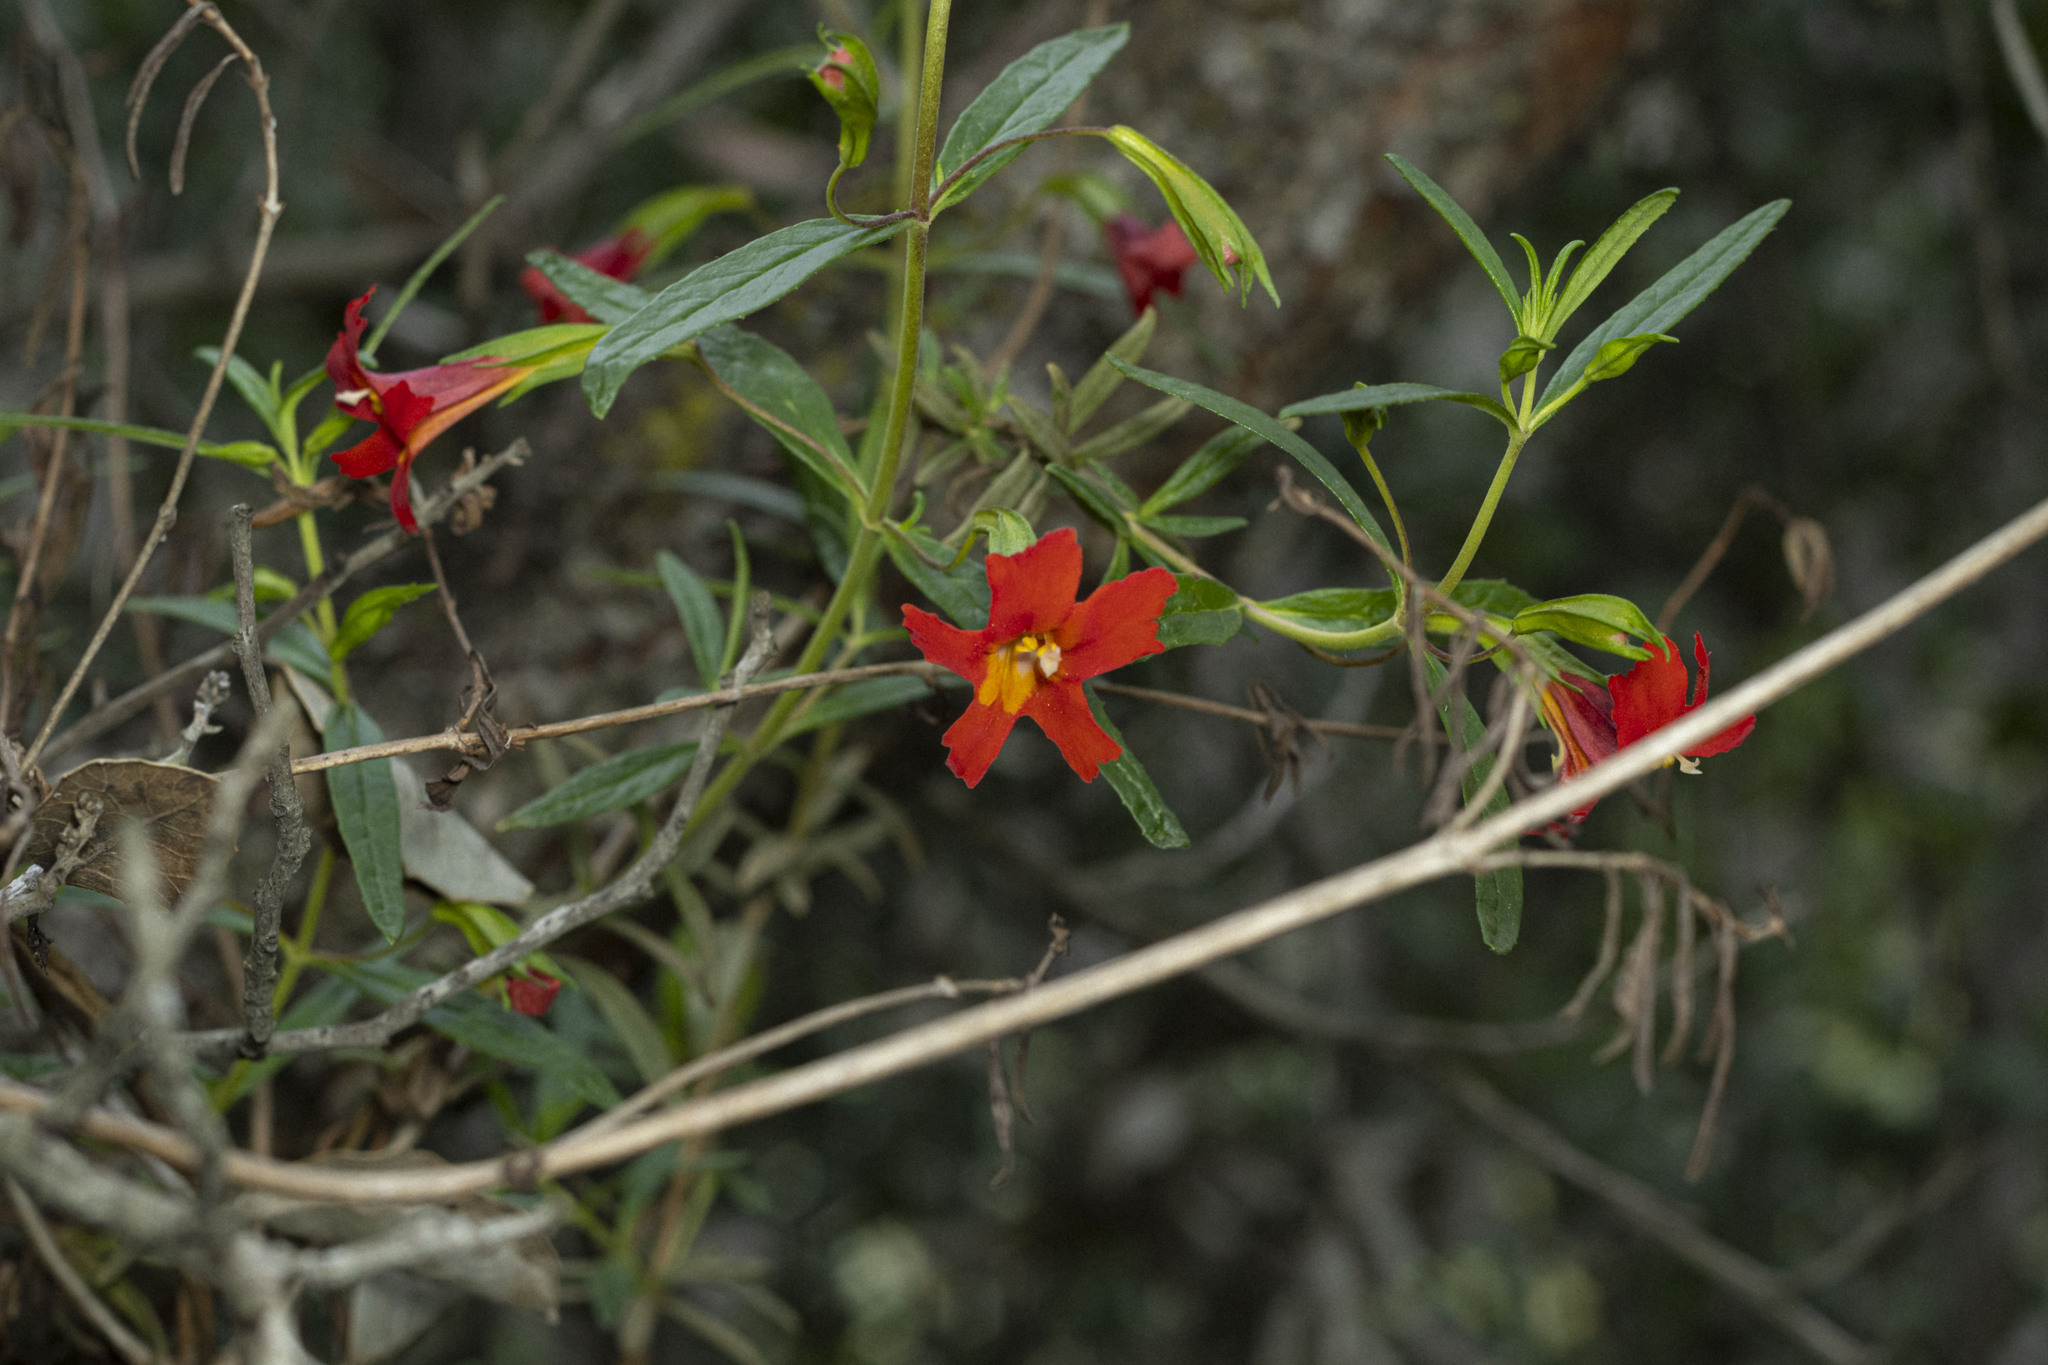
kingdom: Plantae
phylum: Tracheophyta
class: Magnoliopsida
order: Lamiales
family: Phrymaceae
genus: Diplacus
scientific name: Diplacus puniceus
